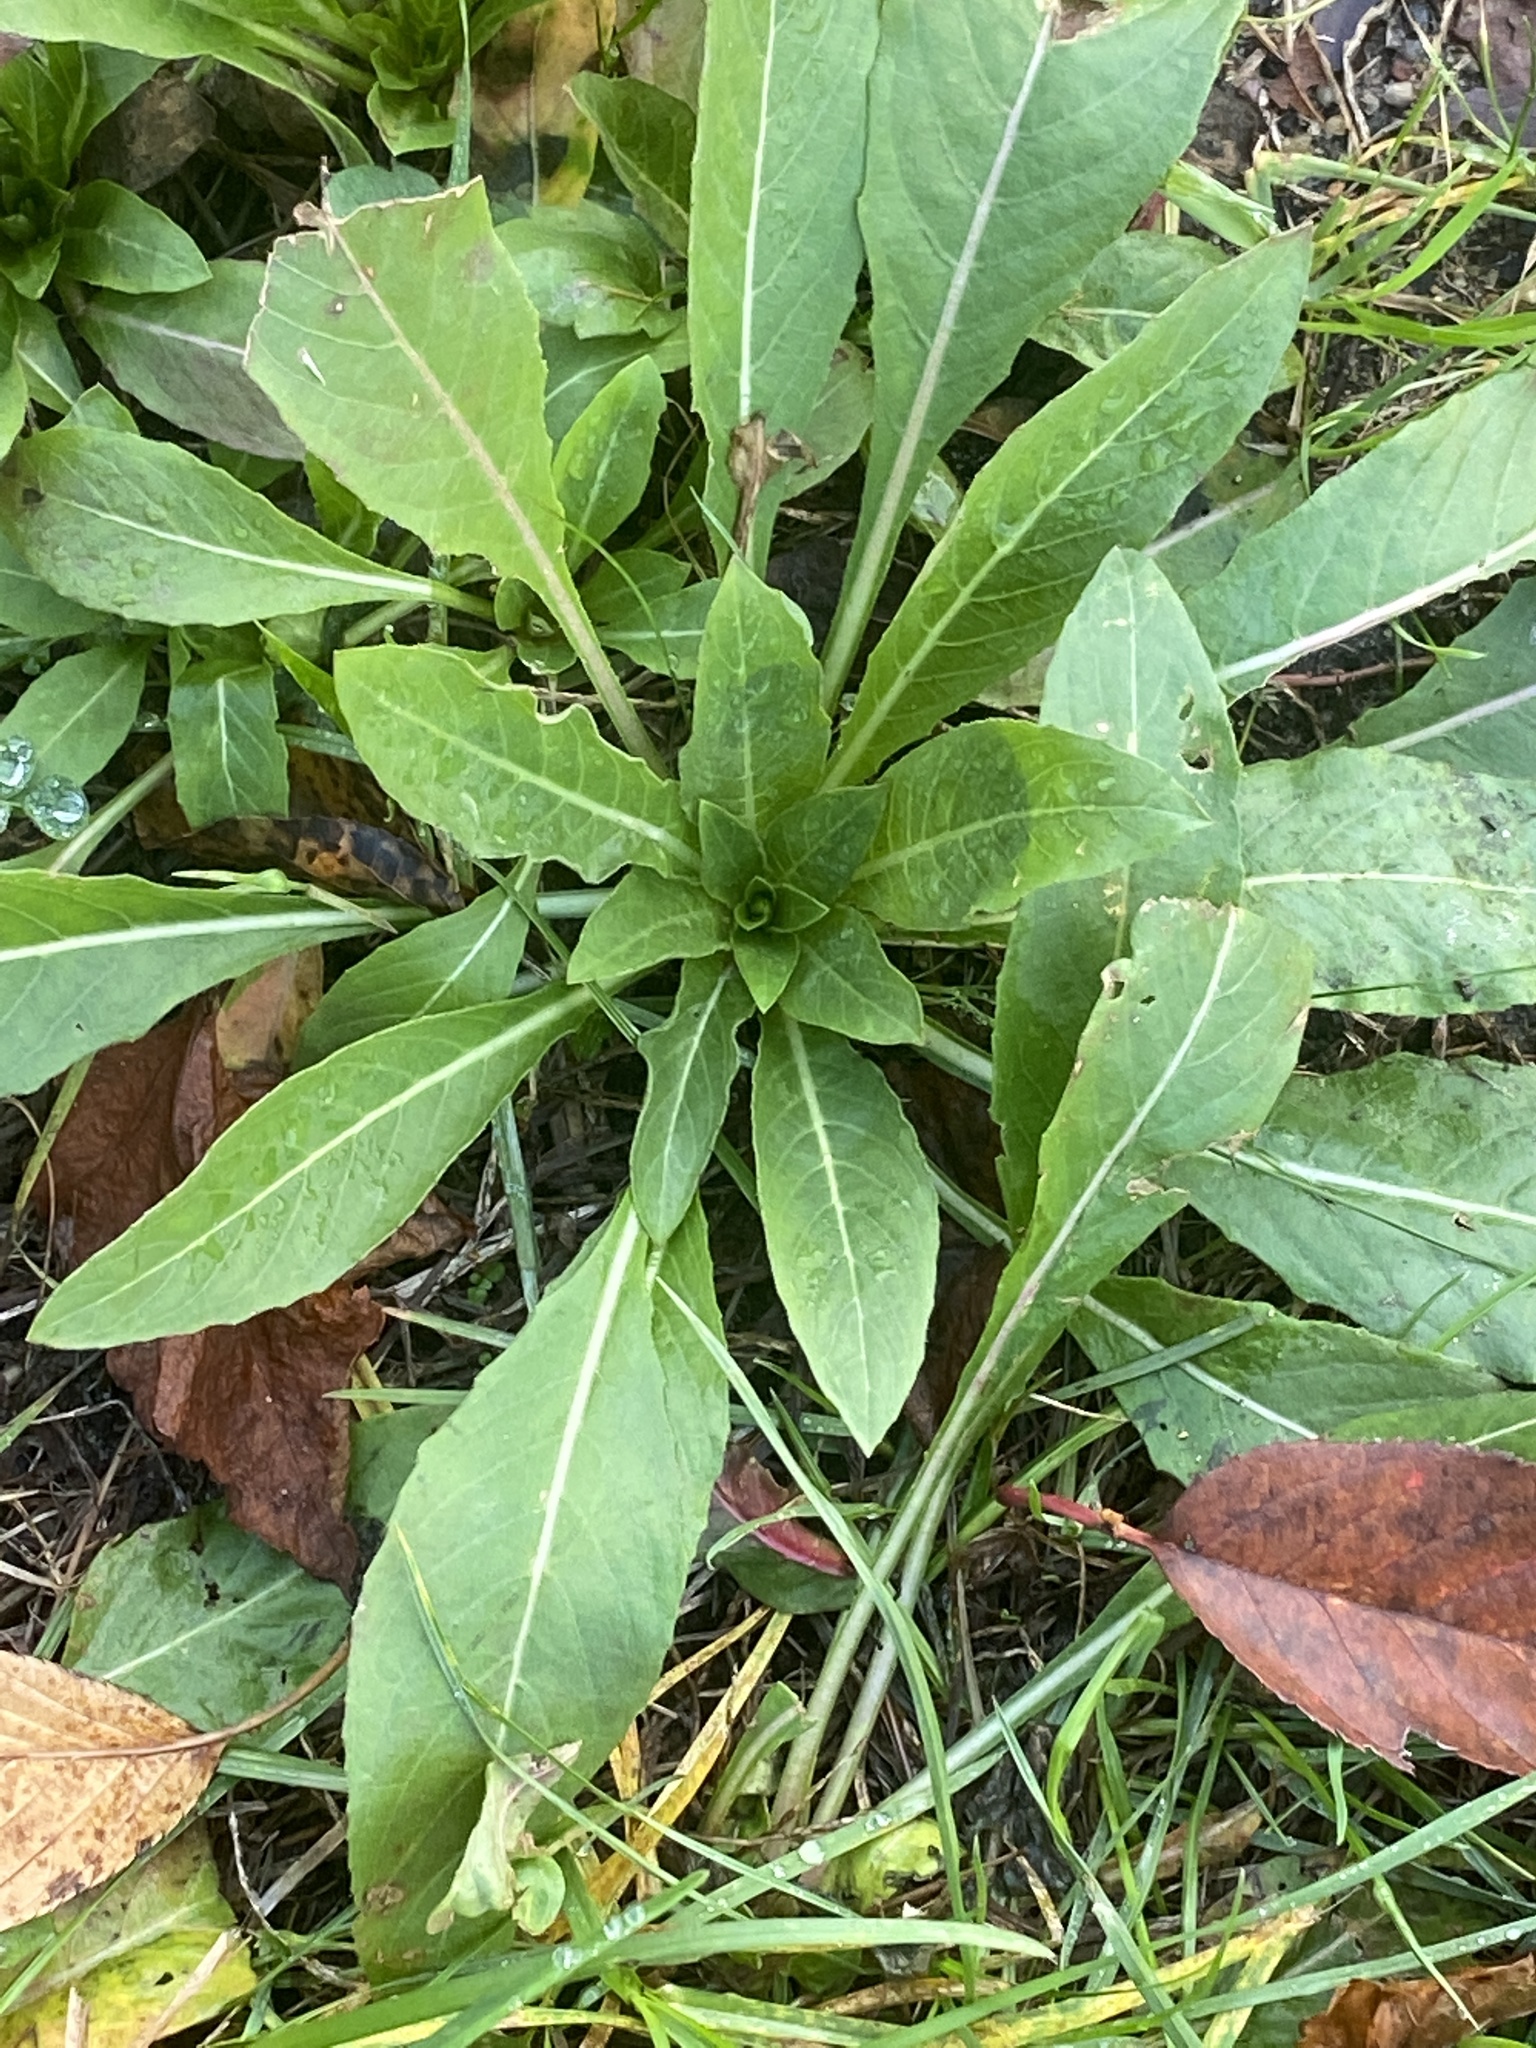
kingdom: Plantae
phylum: Tracheophyta
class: Magnoliopsida
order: Myrtales
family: Onagraceae
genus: Oenothera
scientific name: Oenothera biennis
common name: Common evening-primrose
